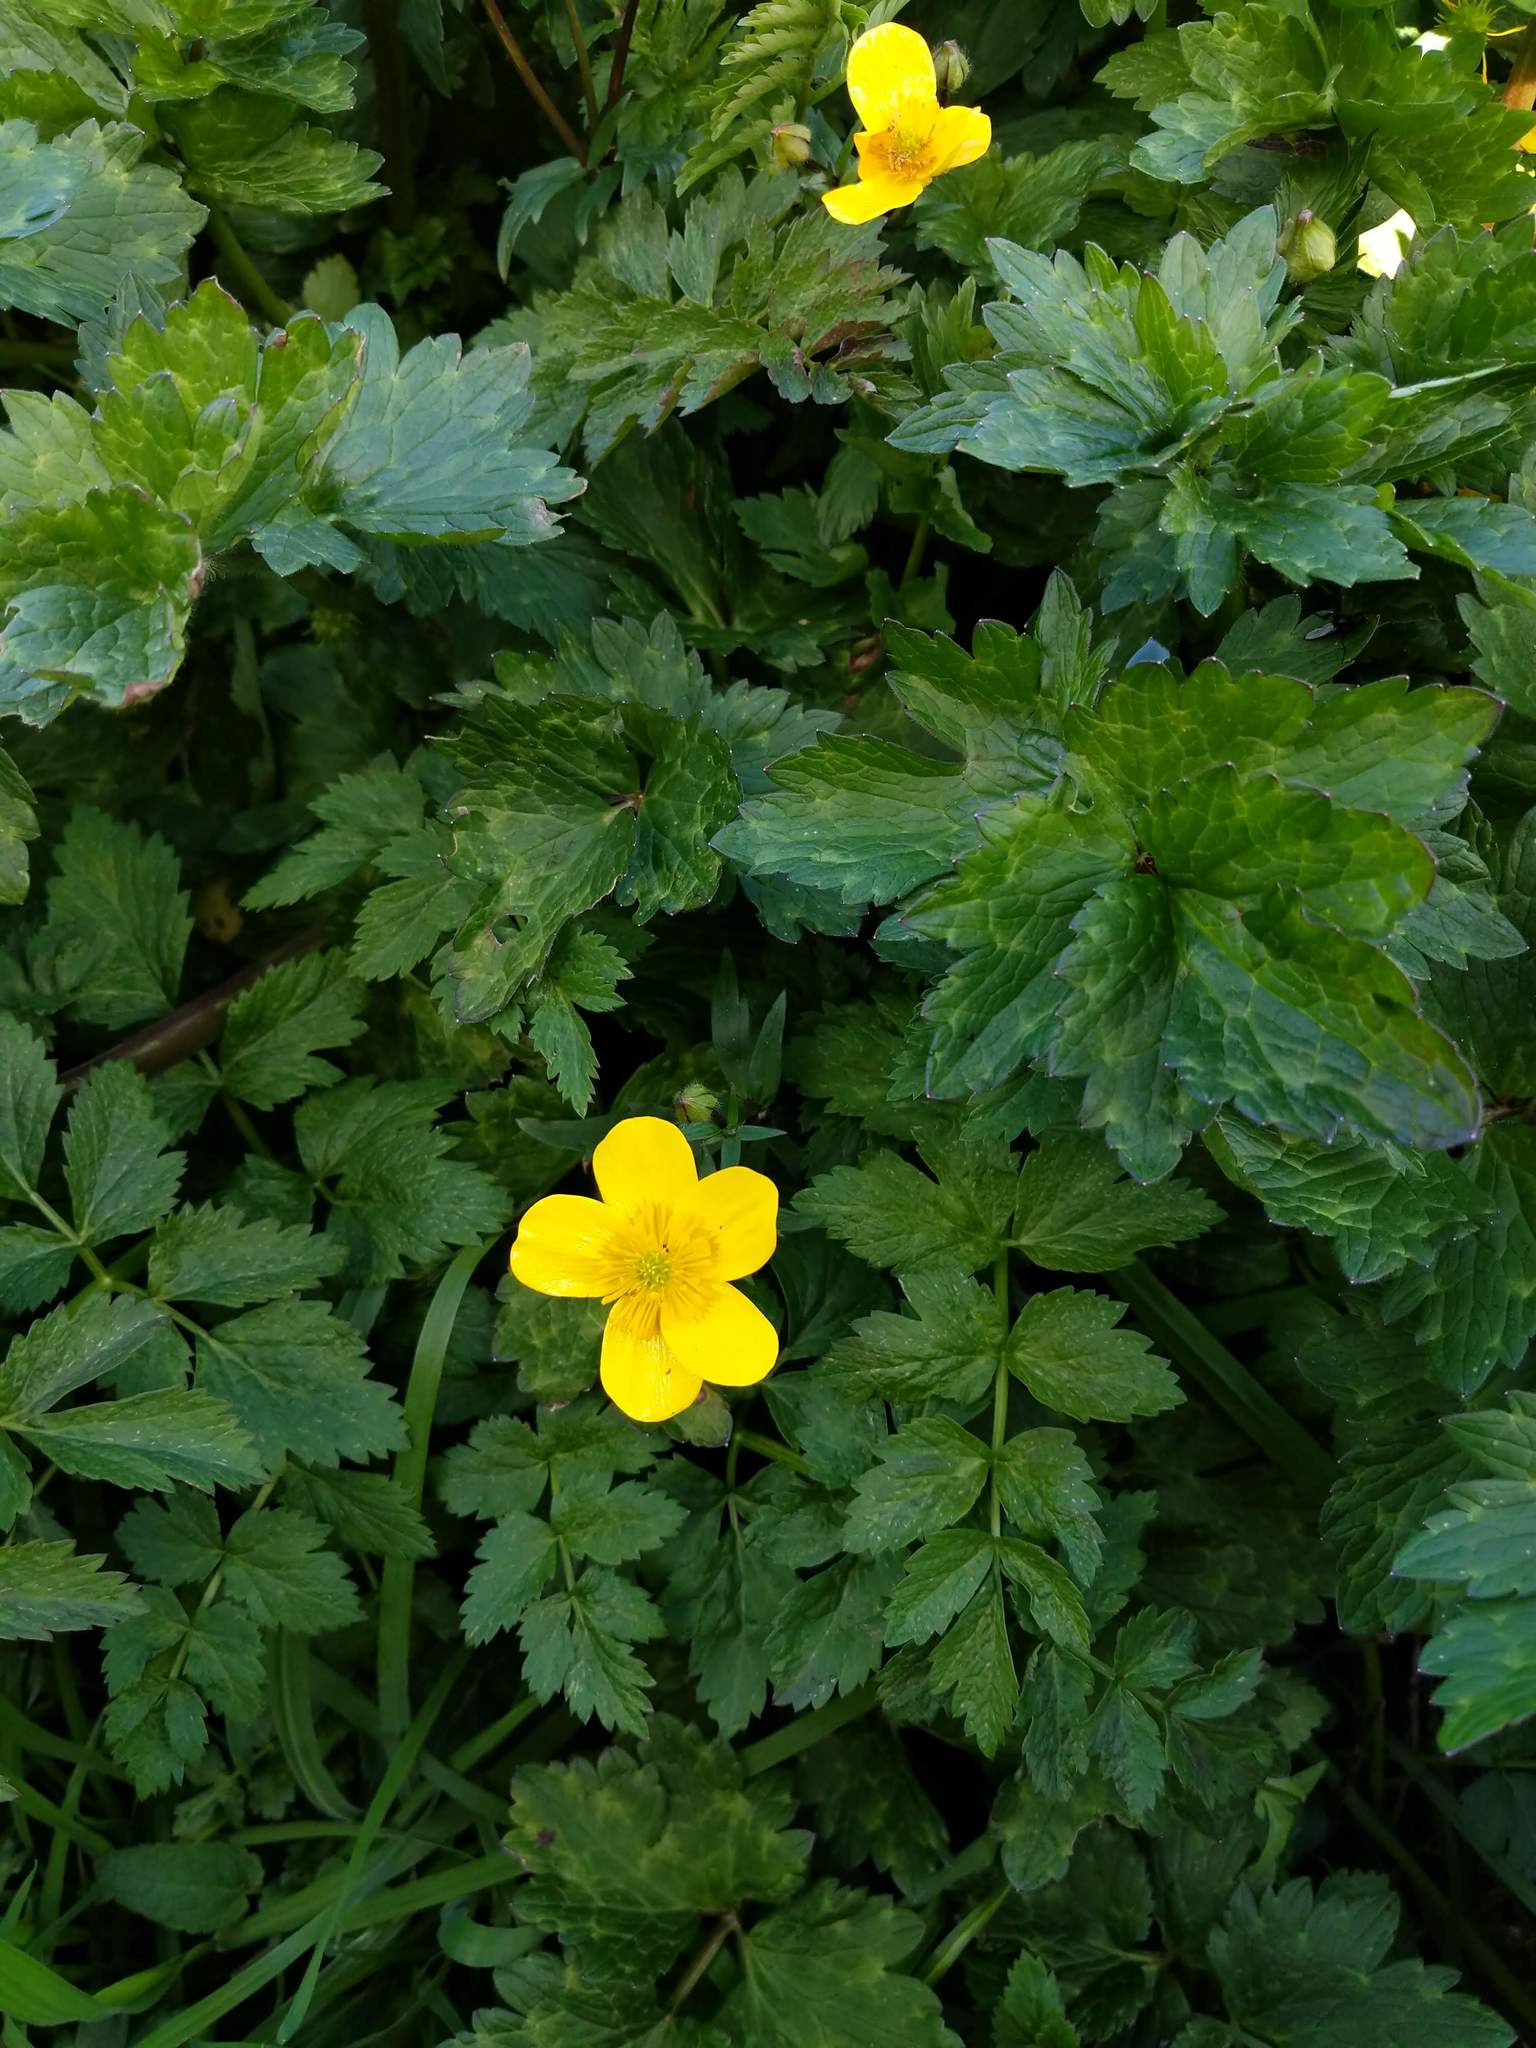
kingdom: Plantae
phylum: Tracheophyta
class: Magnoliopsida
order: Ranunculales
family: Ranunculaceae
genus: Ranunculus
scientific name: Ranunculus orthorhynchus
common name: Straight-beak buttercup
